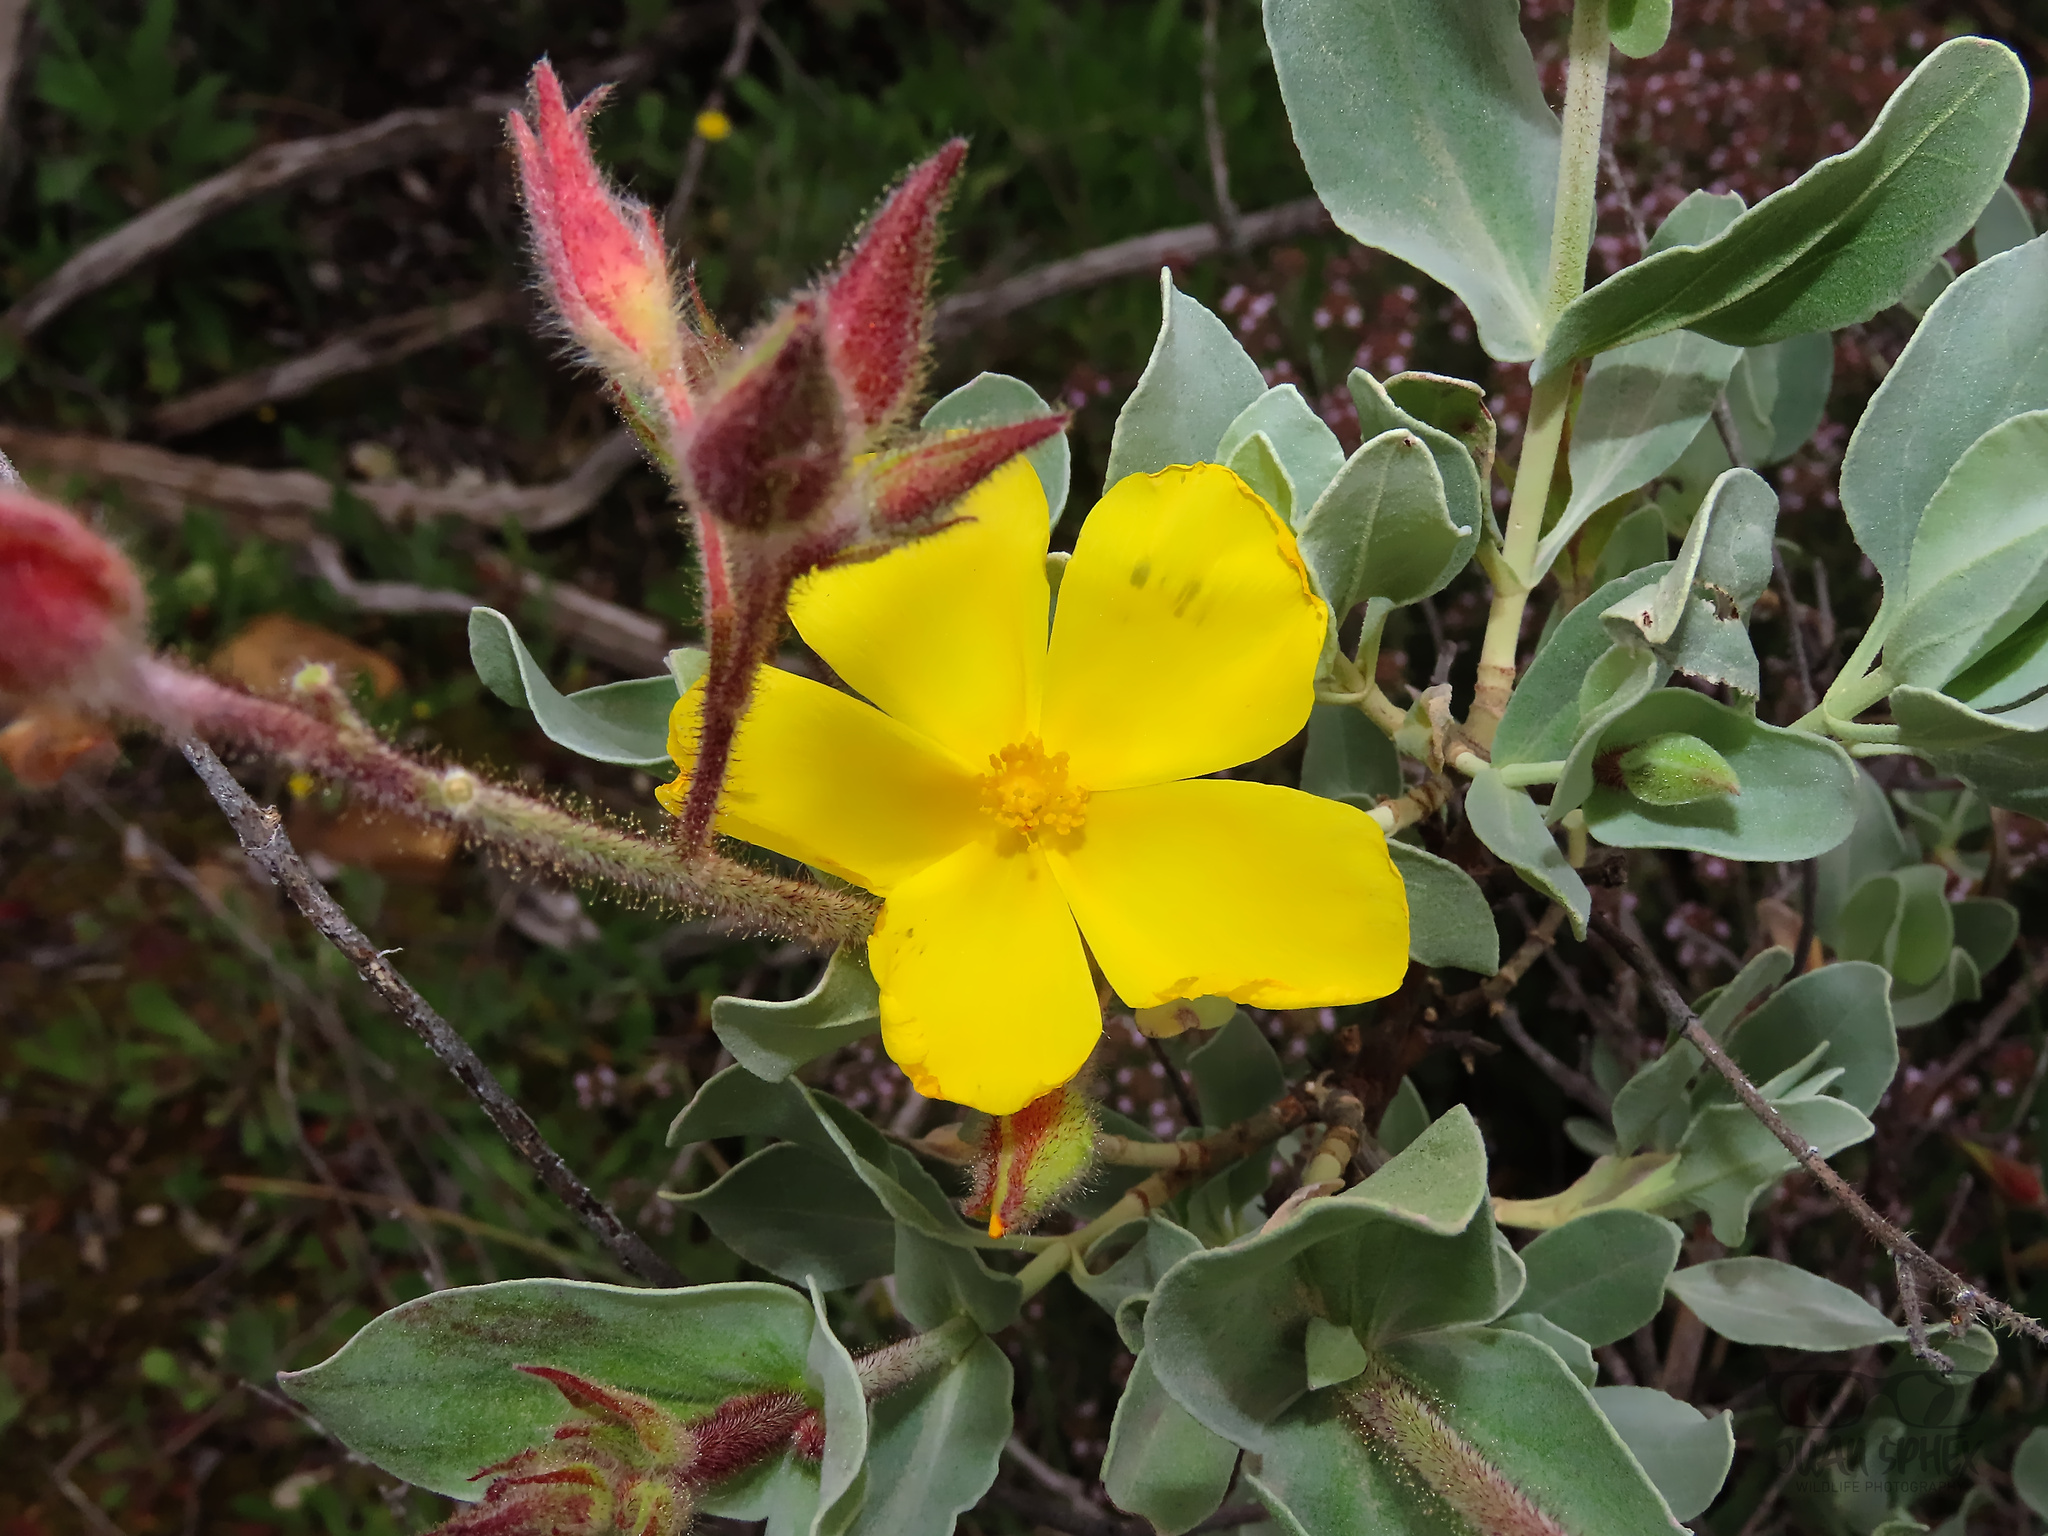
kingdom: Plantae
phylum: Tracheophyta
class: Magnoliopsida
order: Malvales
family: Cistaceae
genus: Halimium
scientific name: Halimium atriplicifolium
